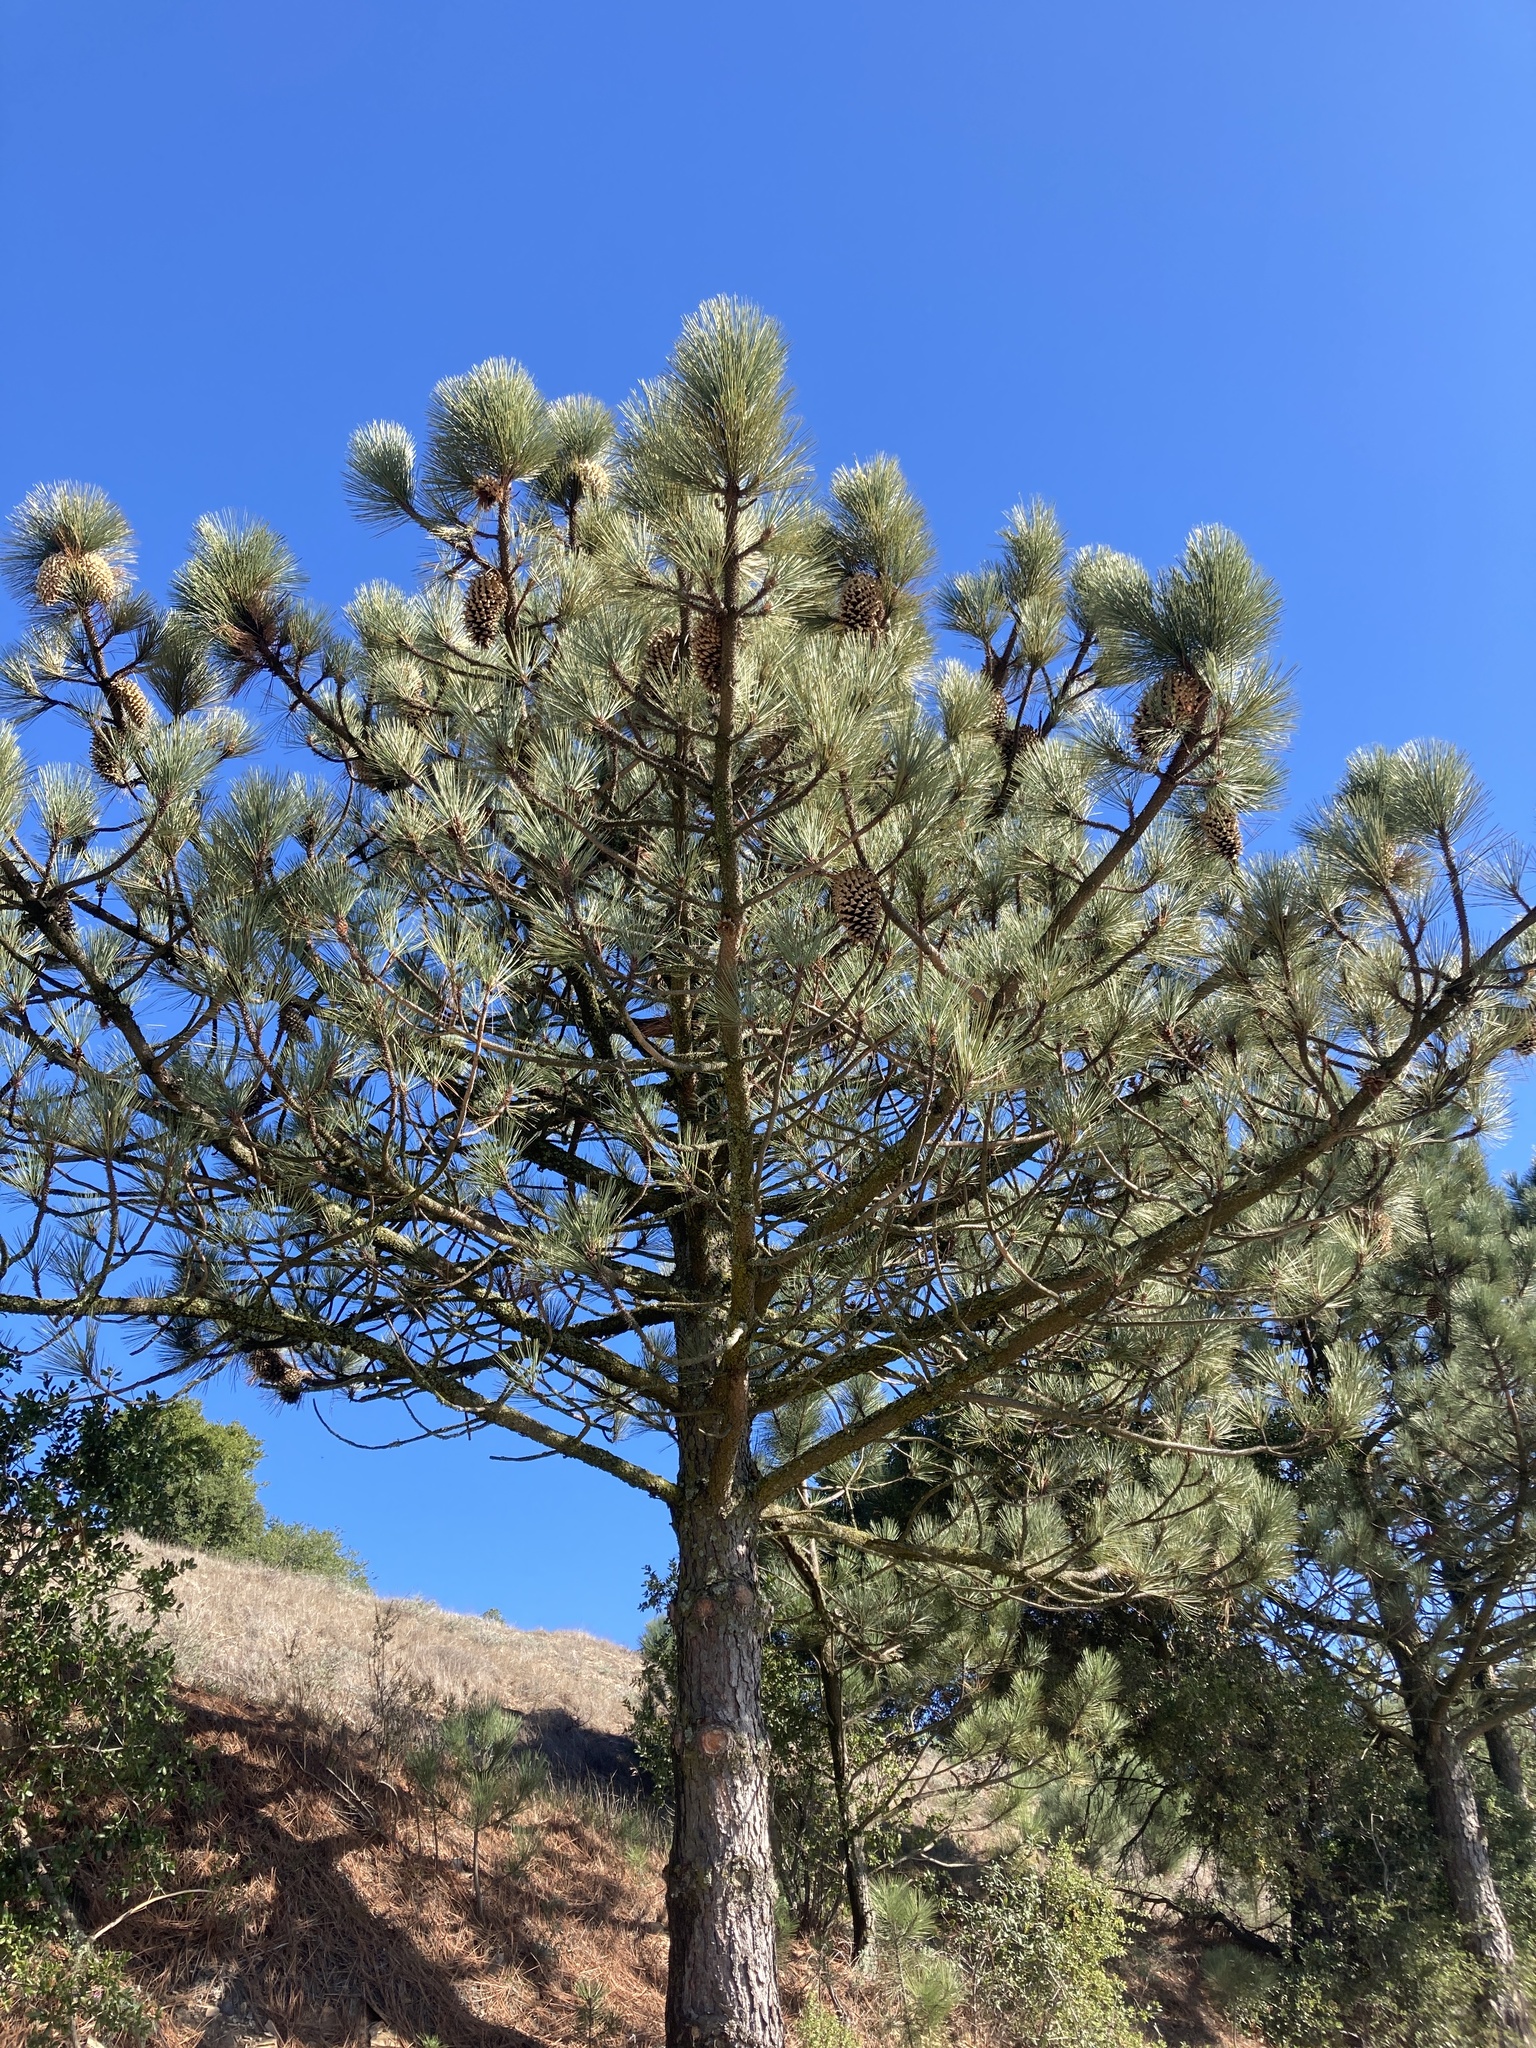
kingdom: Plantae
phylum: Tracheophyta
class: Pinopsida
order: Pinales
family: Pinaceae
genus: Pinus
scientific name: Pinus coulteri
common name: Coulter pine
